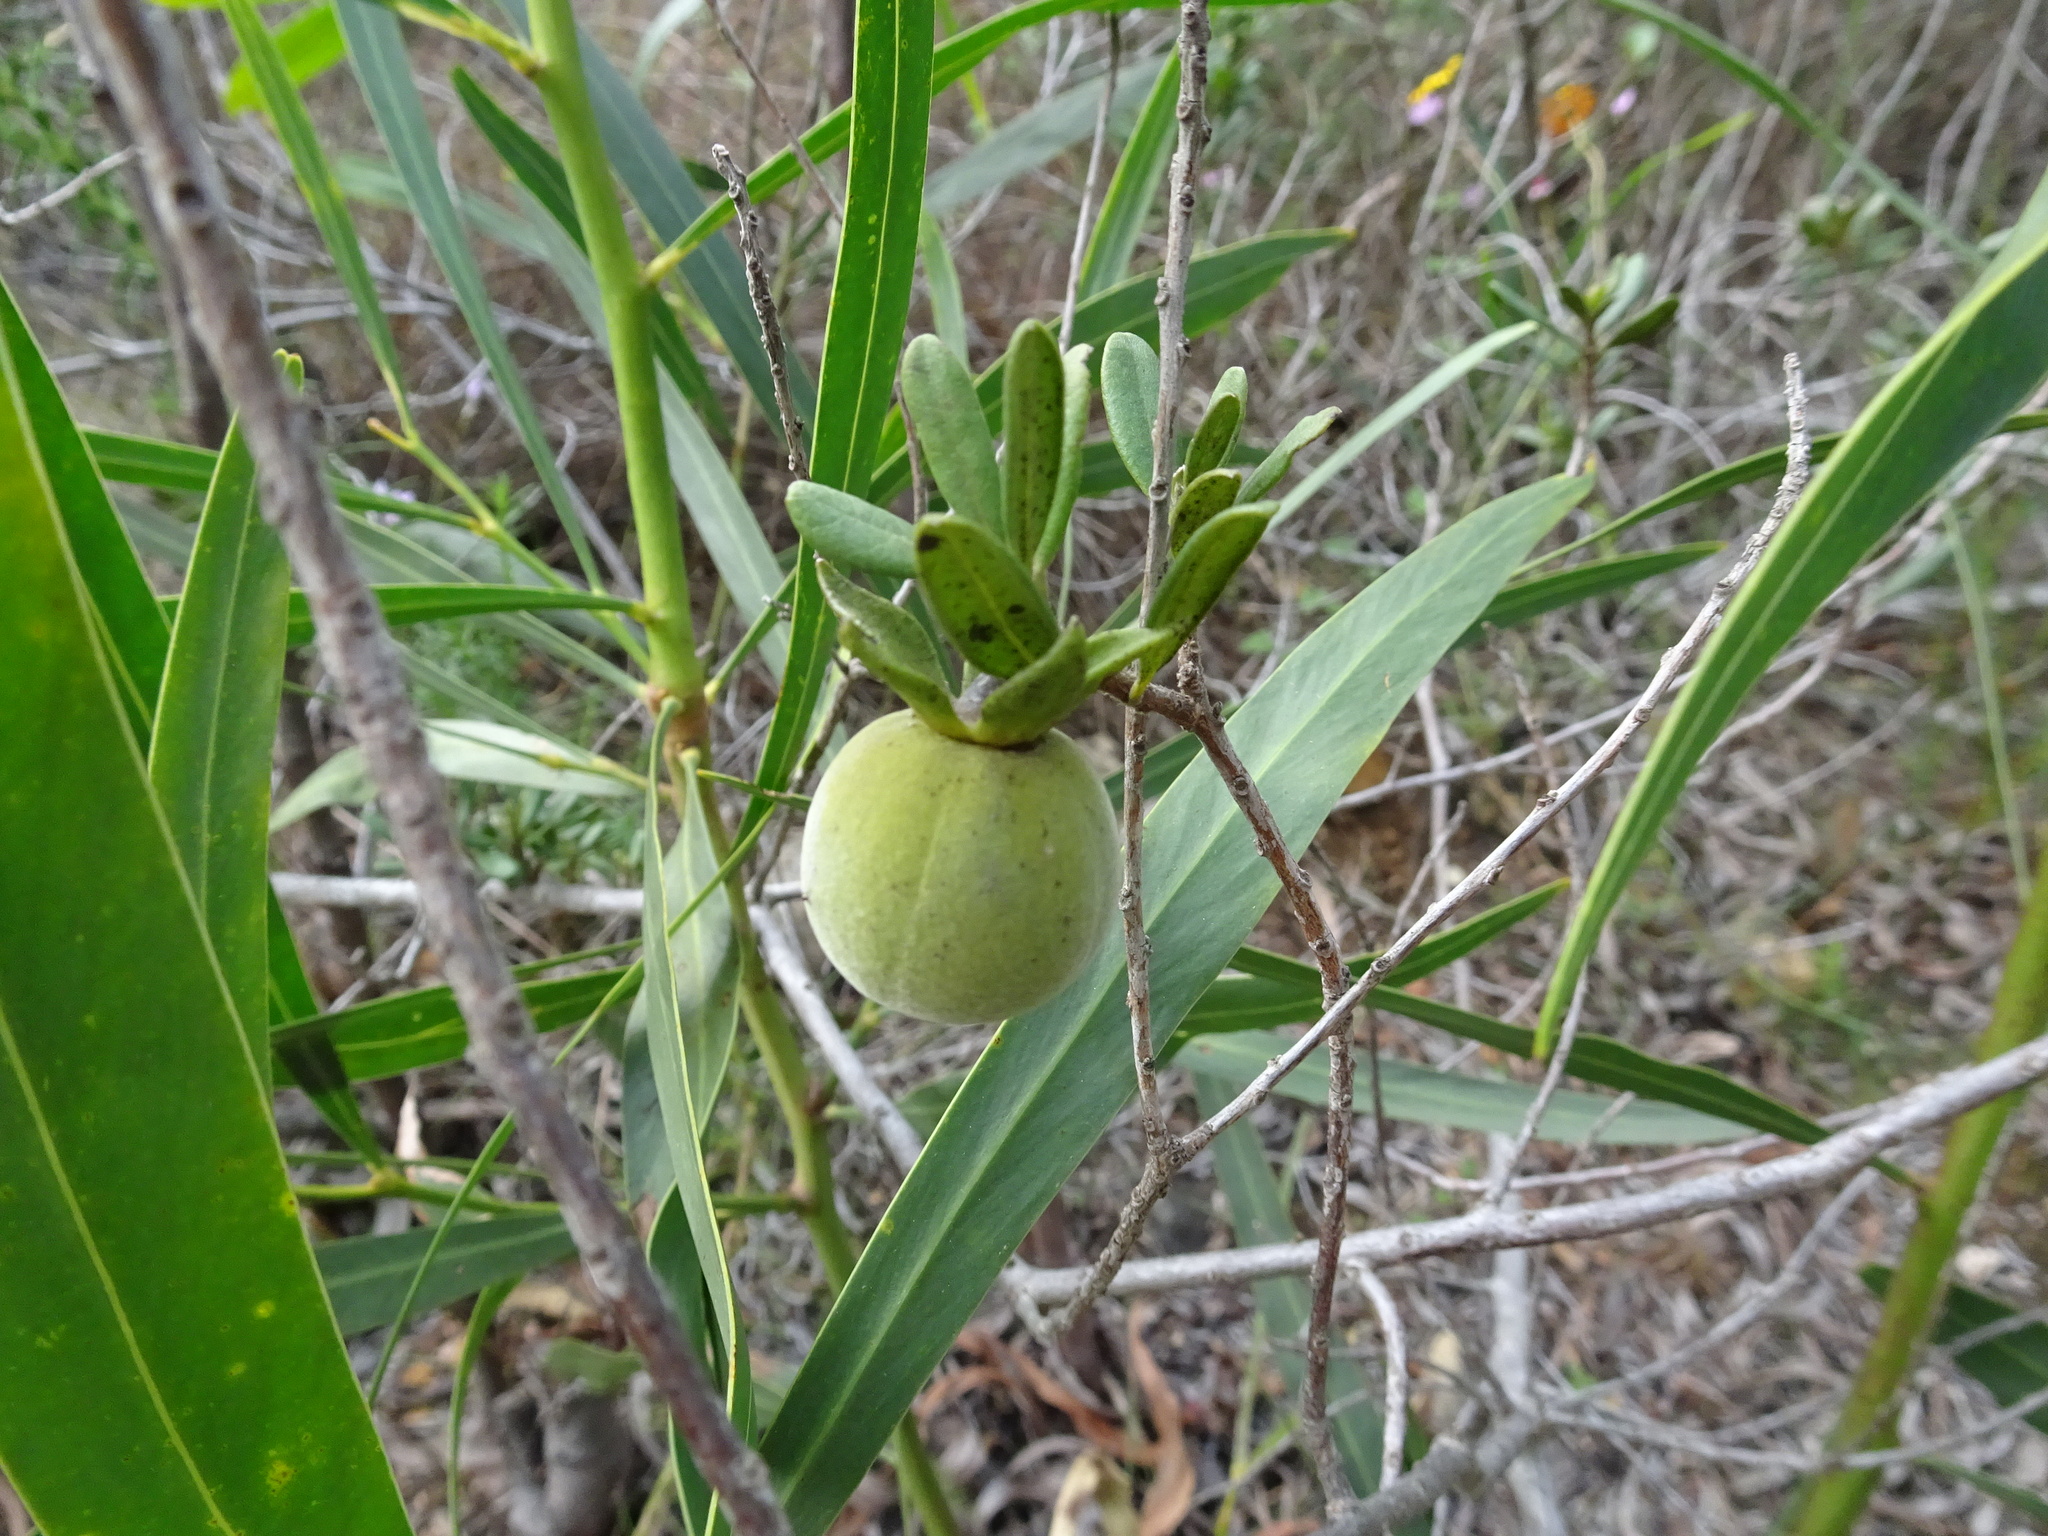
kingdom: Plantae
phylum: Tracheophyta
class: Magnoliopsida
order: Ericales
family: Ebenaceae
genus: Diospyros
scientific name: Diospyros dichrophylla
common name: Common star-apple
